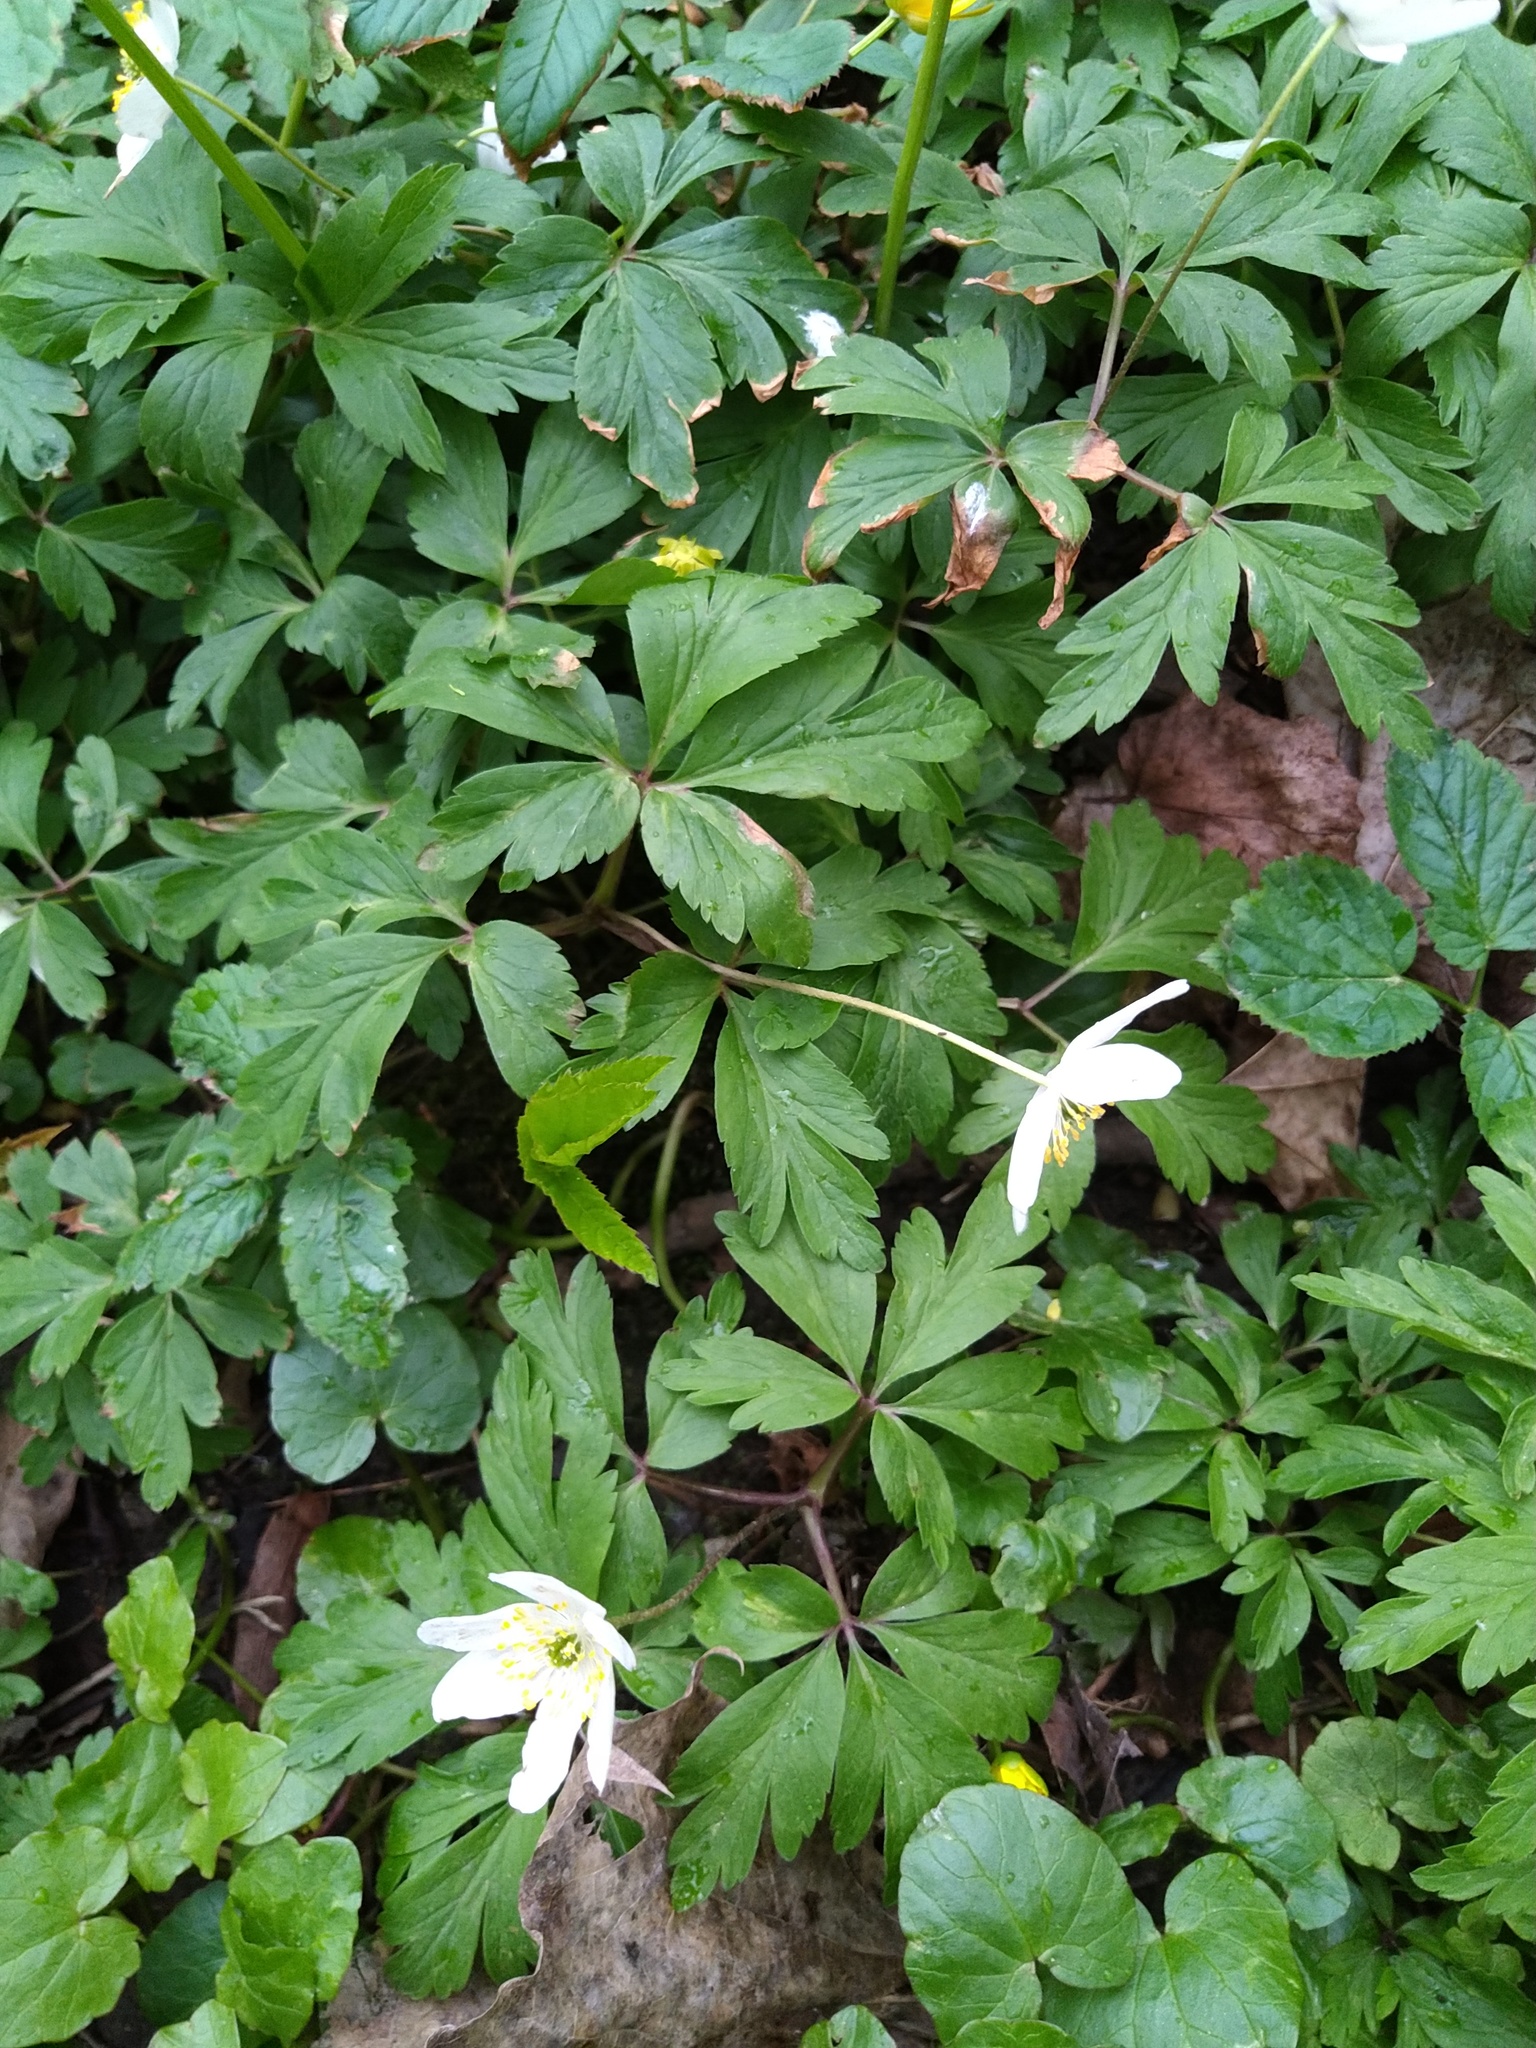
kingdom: Plantae
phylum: Tracheophyta
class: Magnoliopsida
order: Ranunculales
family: Ranunculaceae
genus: Anemone
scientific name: Anemone nemorosa
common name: Wood anemone
